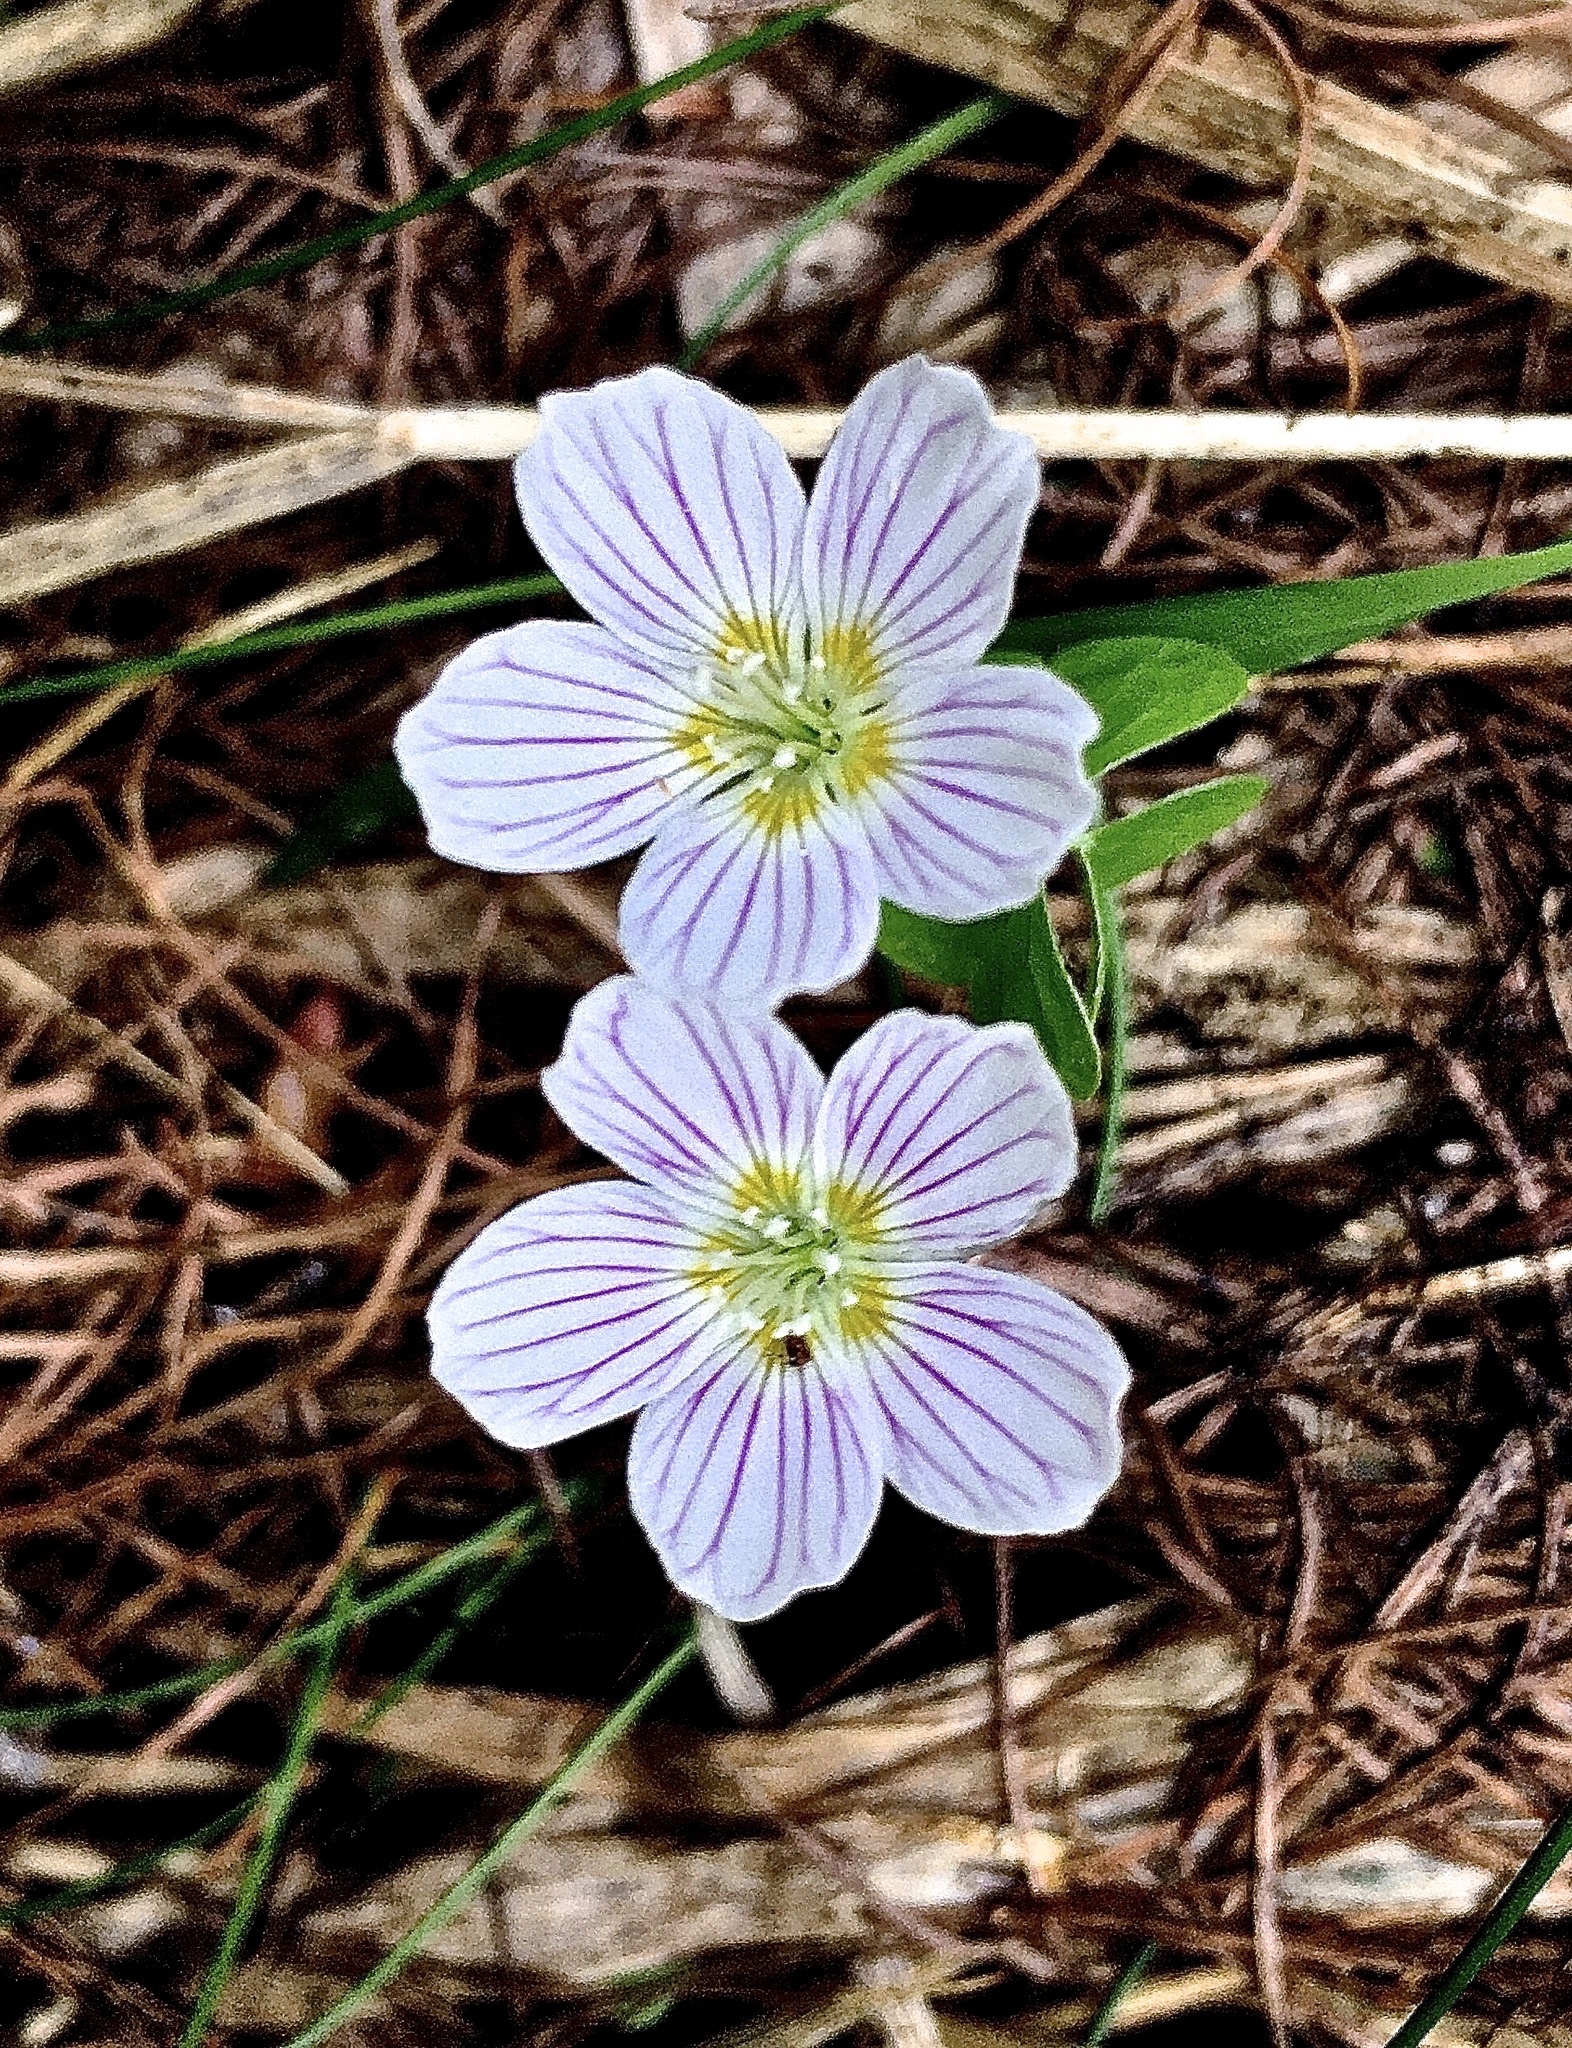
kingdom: Plantae
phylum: Tracheophyta
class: Magnoliopsida
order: Oxalidales
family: Oxalidaceae
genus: Oxalis
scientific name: Oxalis acetosella
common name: Wood-sorrel
